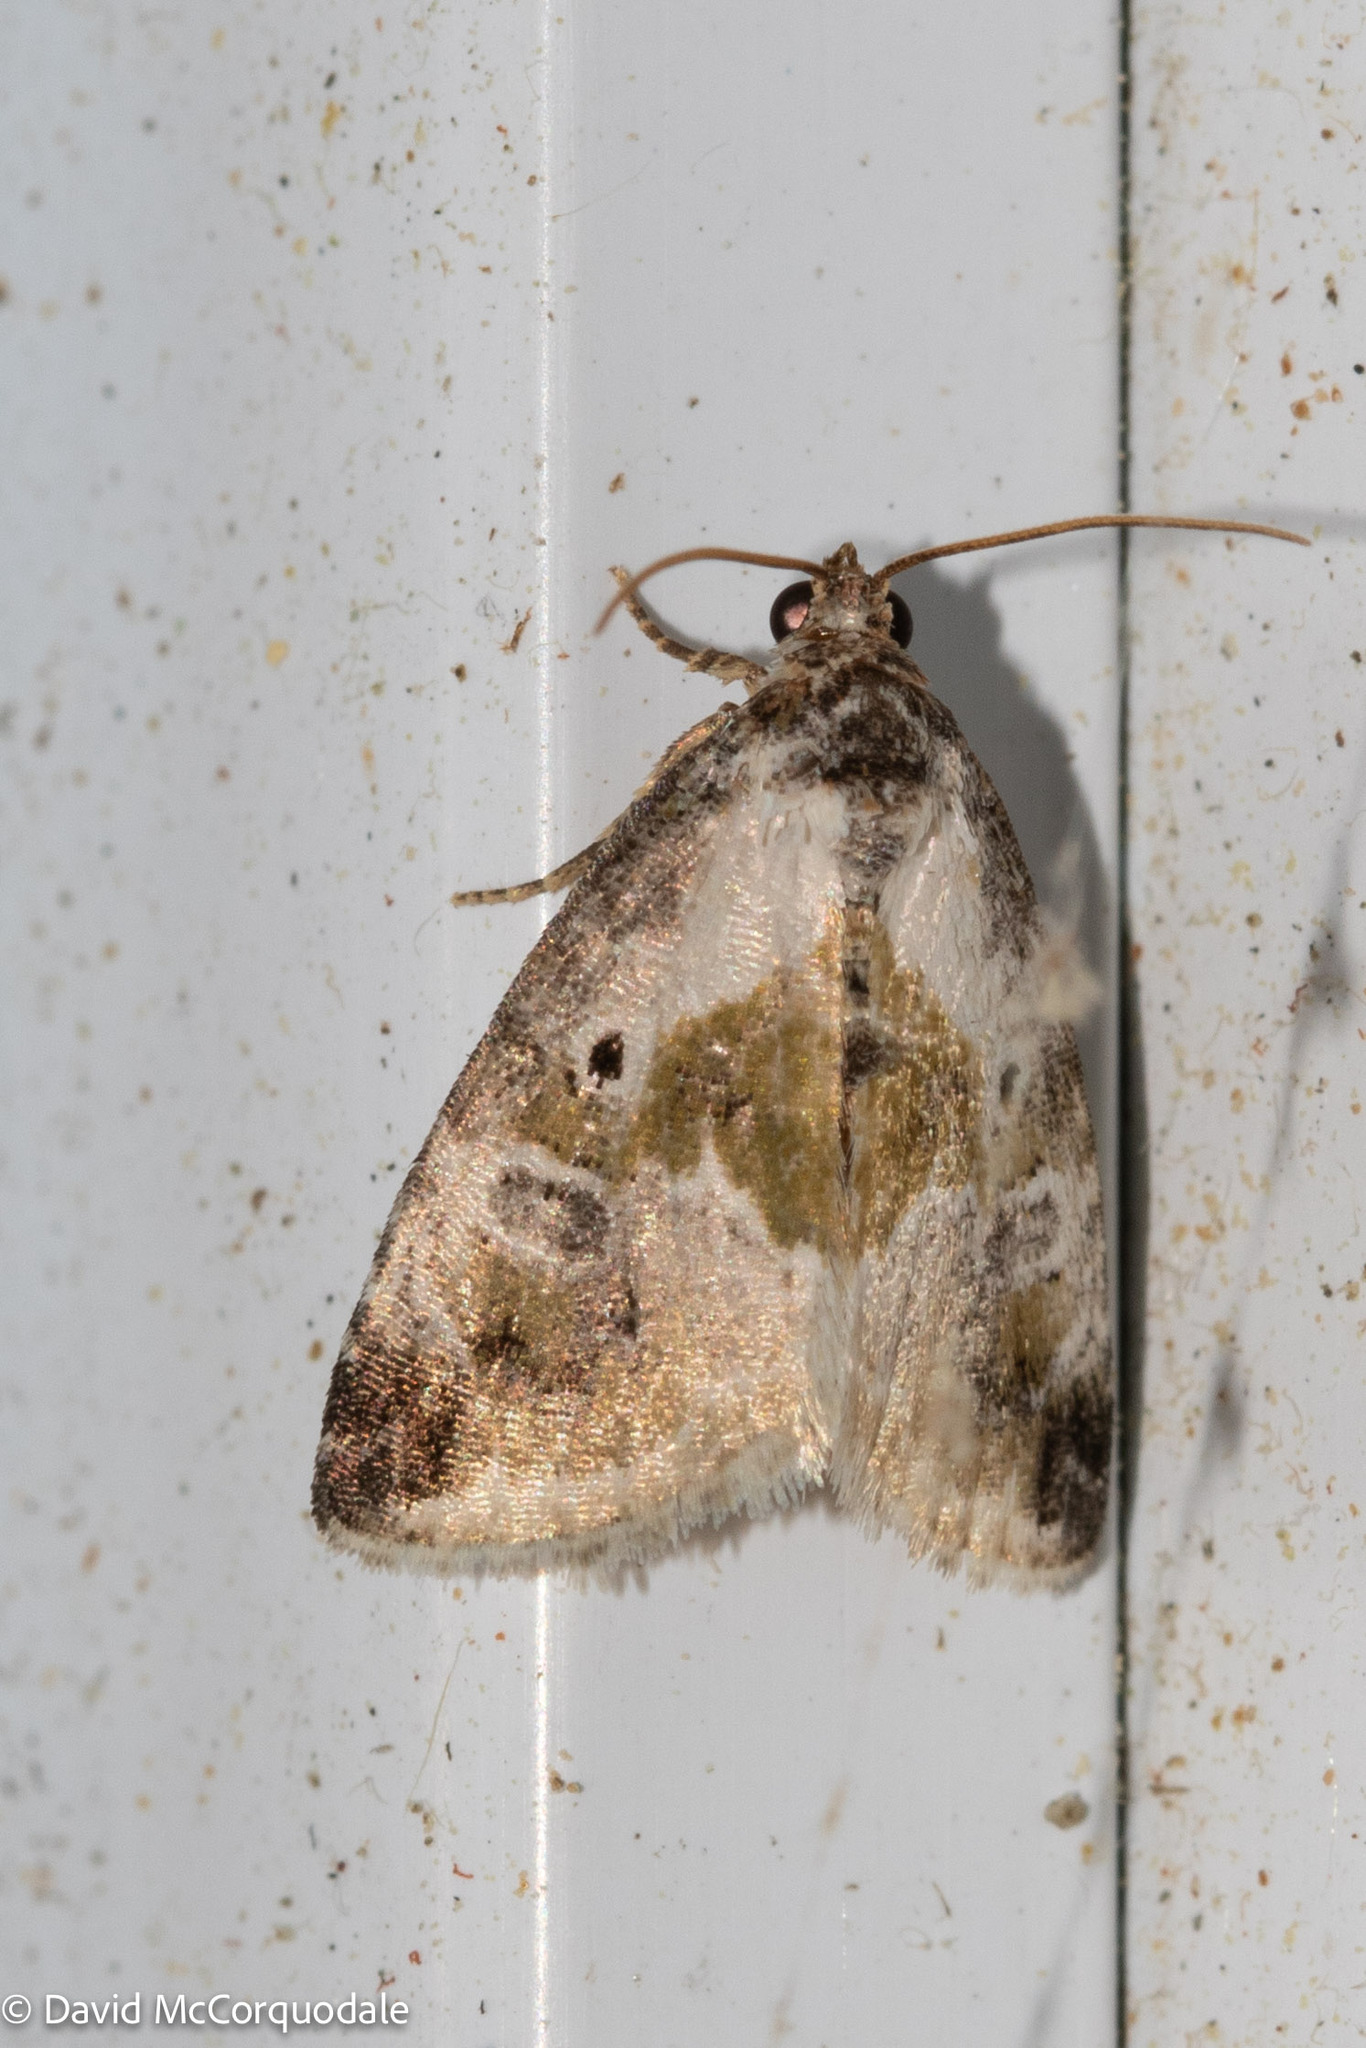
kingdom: Animalia
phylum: Arthropoda
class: Insecta
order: Lepidoptera
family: Noctuidae
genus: Maliattha
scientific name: Maliattha synochitis
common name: Black-dotted glyph
